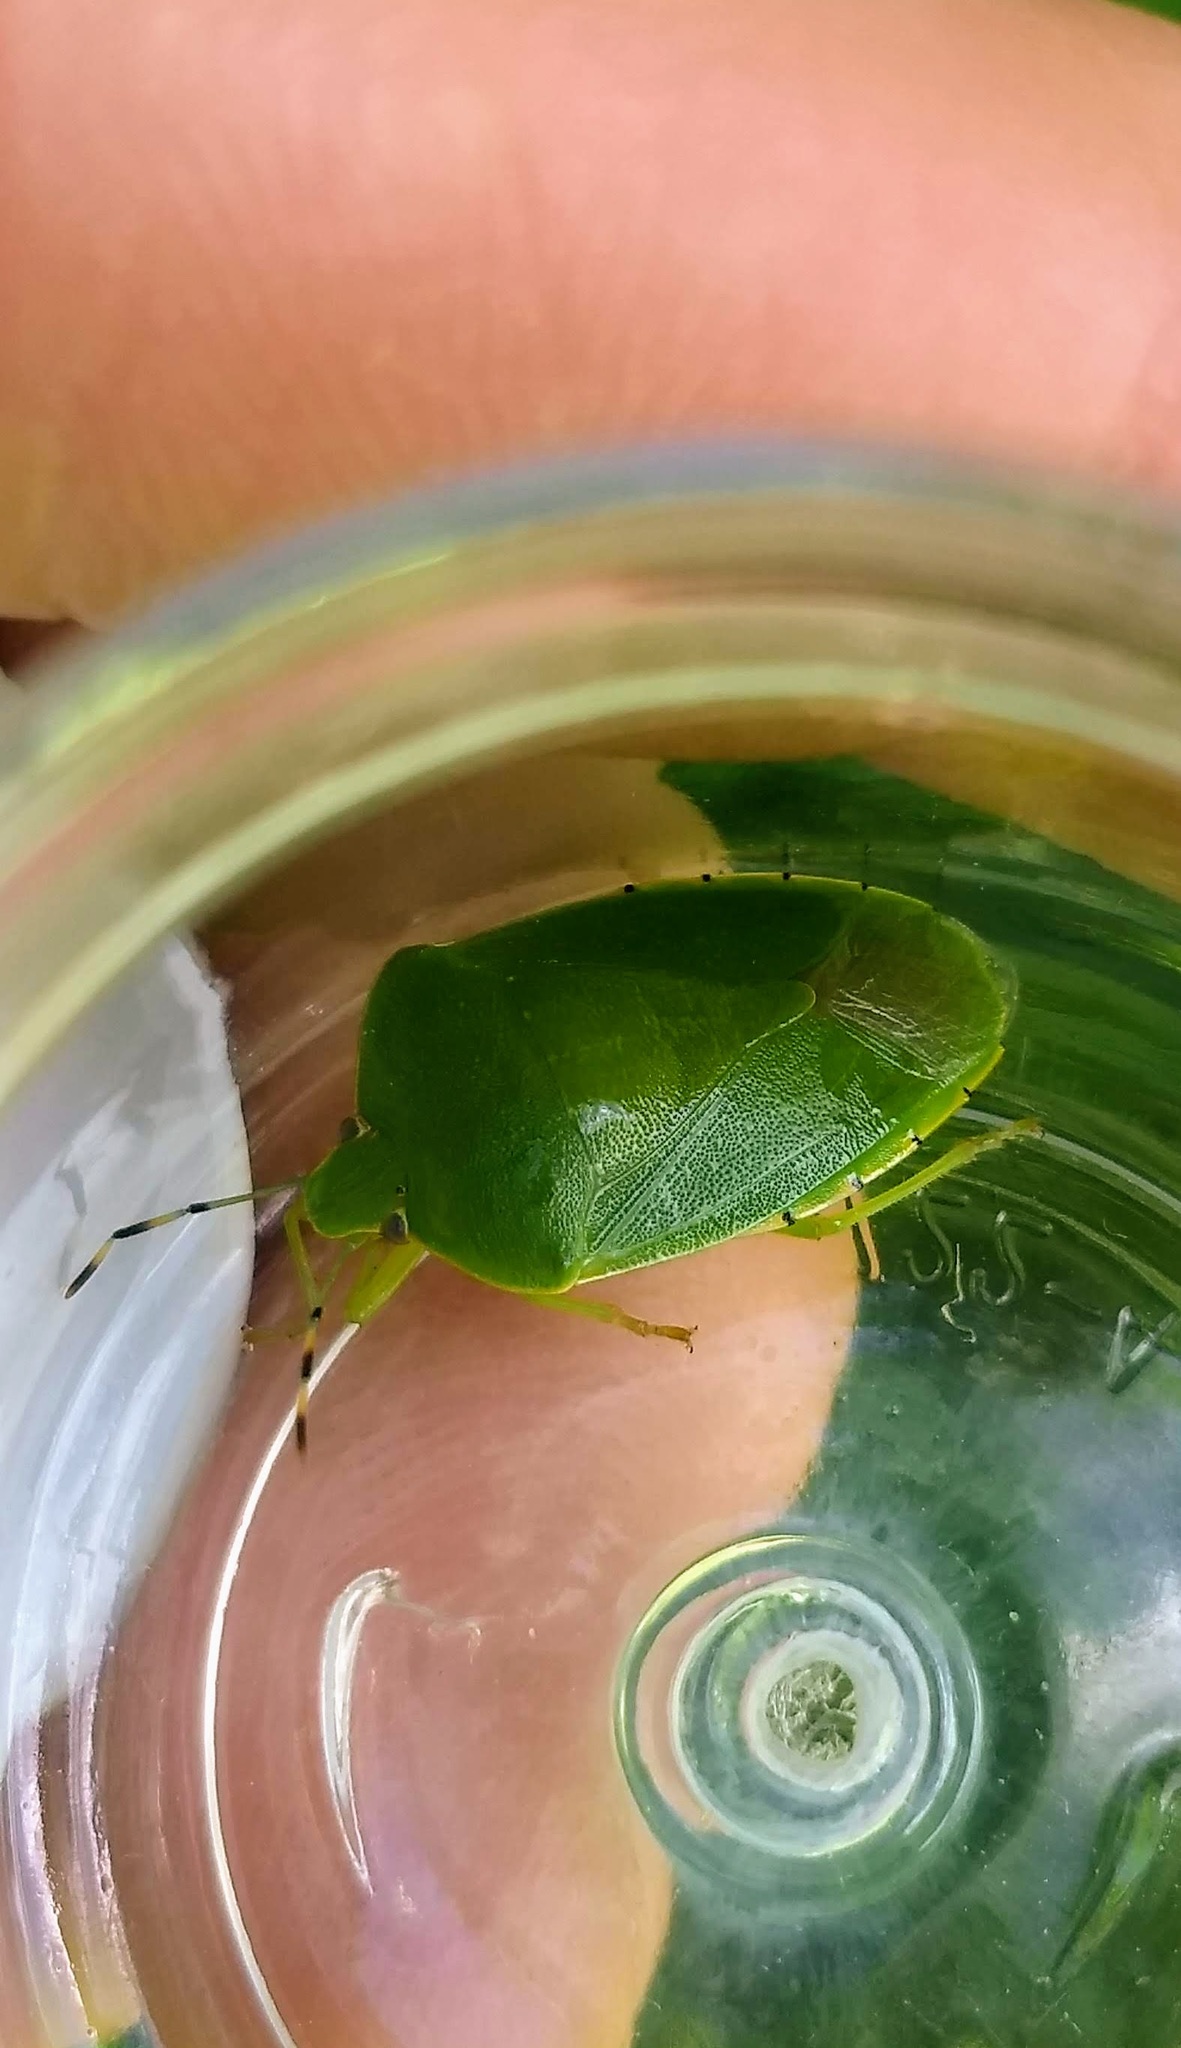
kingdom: Animalia
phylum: Arthropoda
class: Insecta
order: Hemiptera
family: Pentatomidae
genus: Chinavia
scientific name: Chinavia hilaris
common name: Green stink bug
